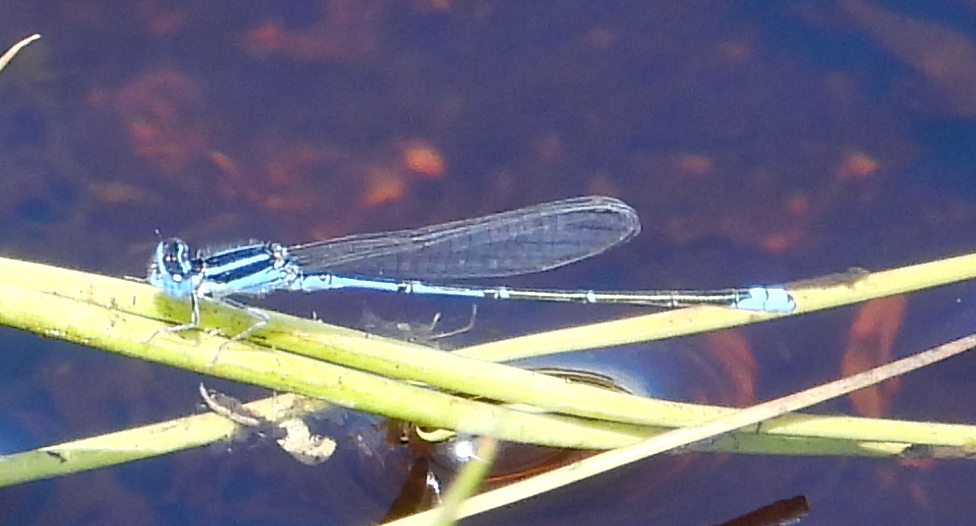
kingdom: Animalia
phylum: Arthropoda
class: Insecta
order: Odonata
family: Coenagrionidae
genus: Azuragrion
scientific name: Azuragrion nigridorsum
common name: Sailing azuret
